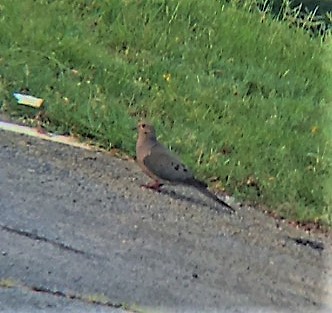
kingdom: Animalia
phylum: Chordata
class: Aves
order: Columbiformes
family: Columbidae
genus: Zenaida
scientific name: Zenaida macroura
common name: Mourning dove
